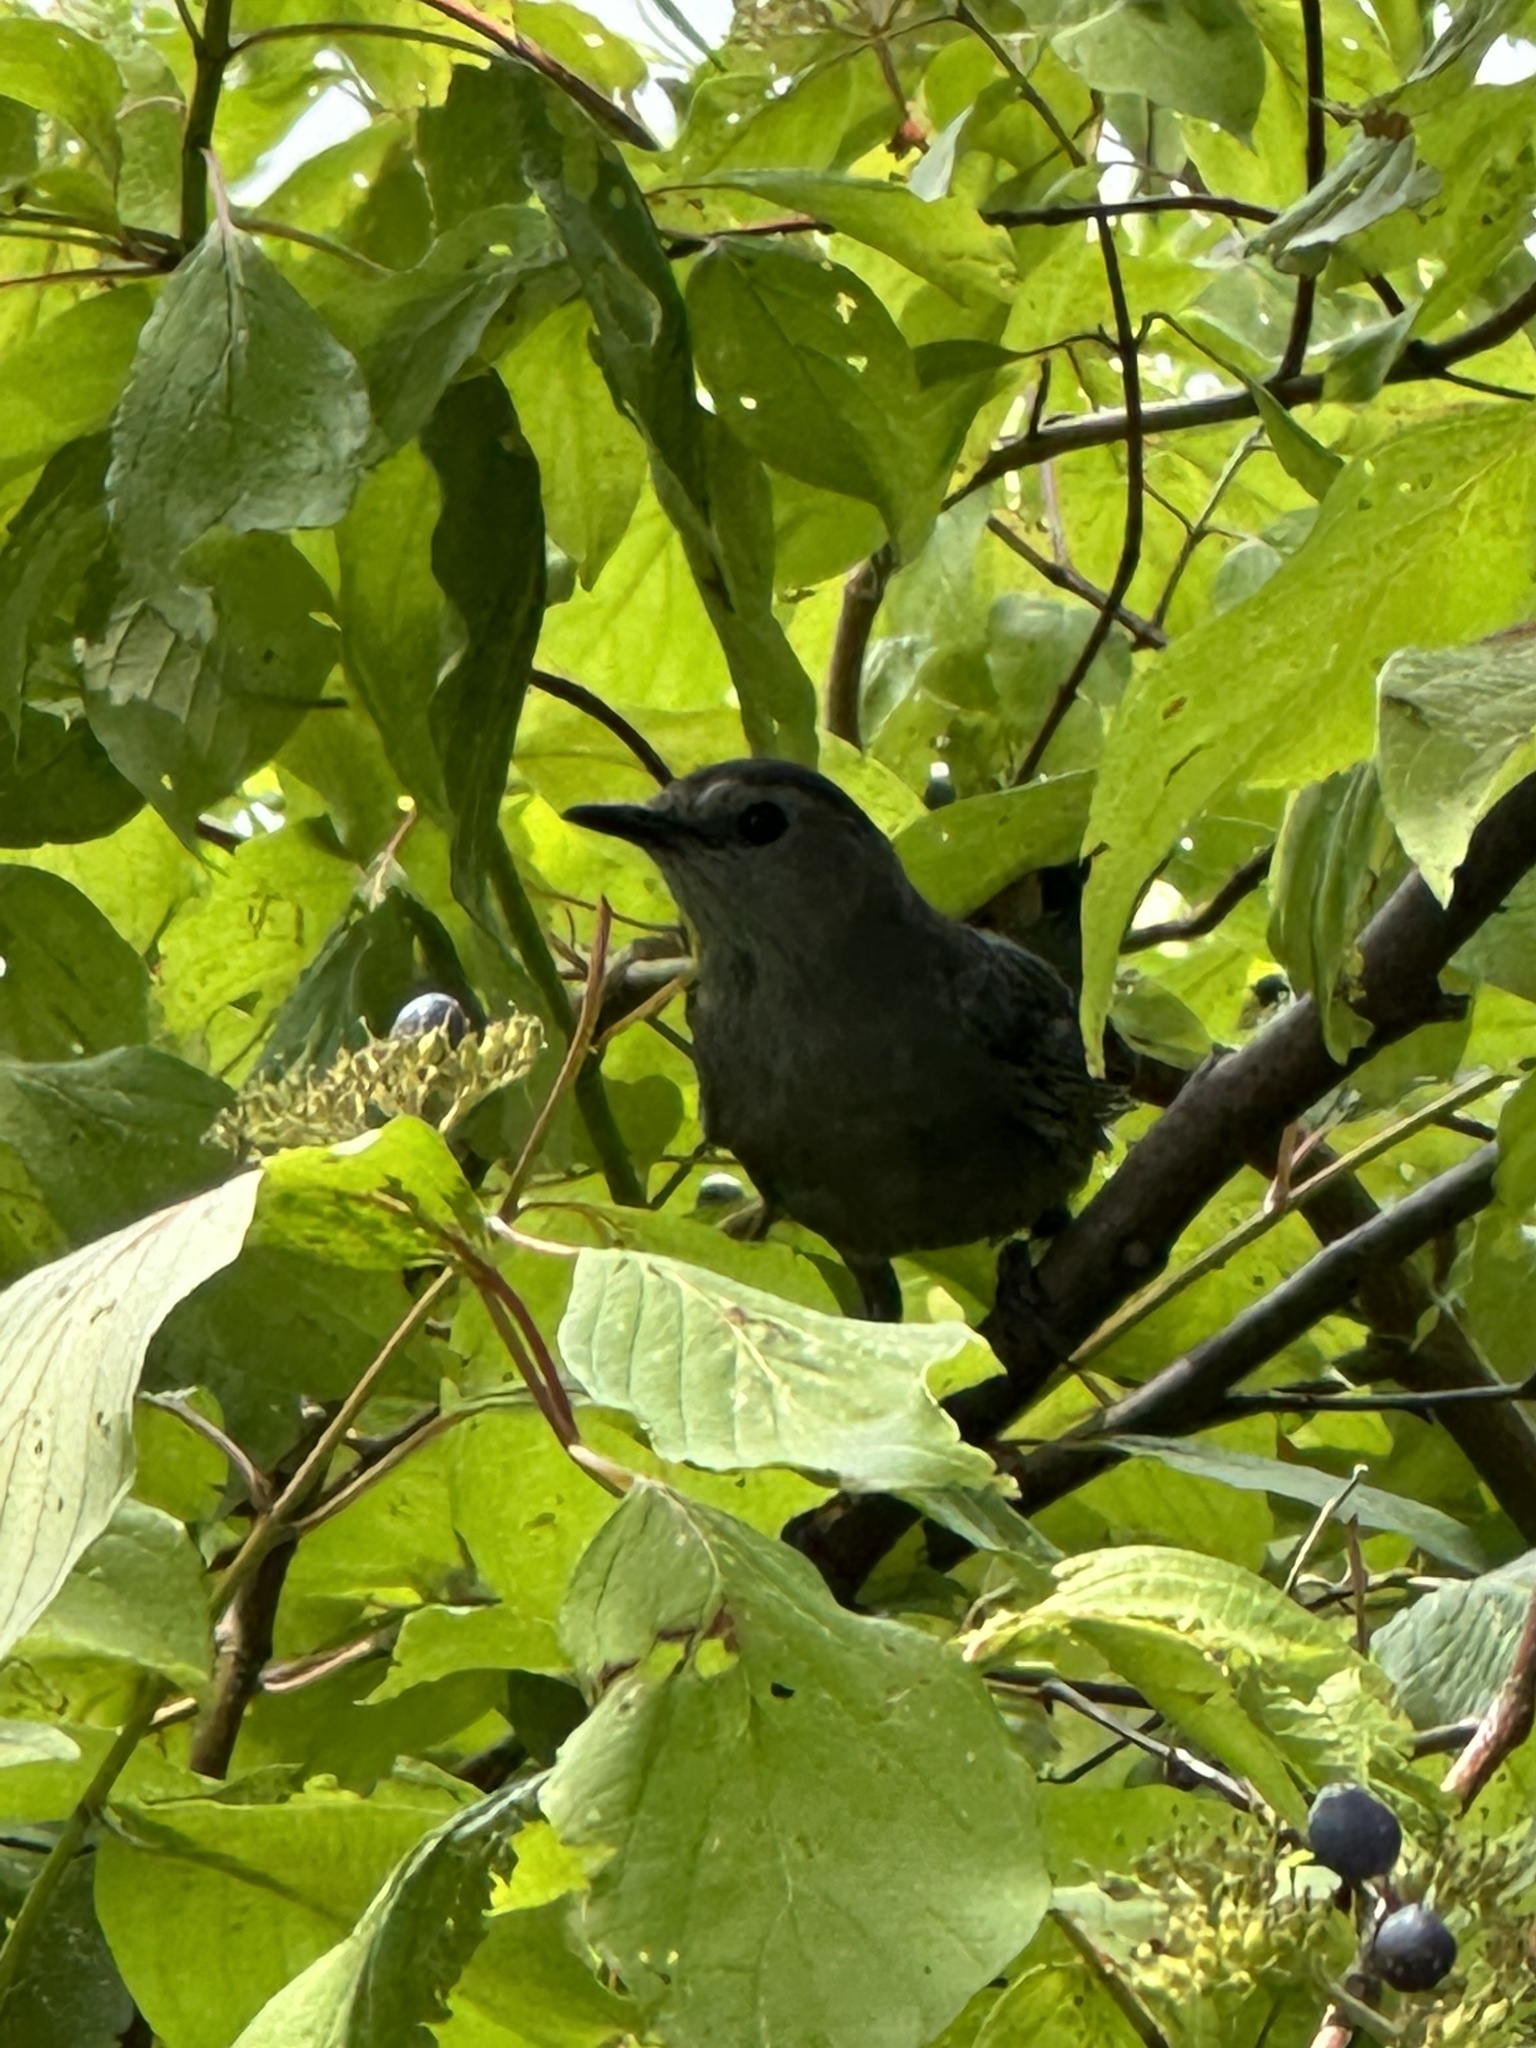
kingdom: Animalia
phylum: Chordata
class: Aves
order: Passeriformes
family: Mimidae
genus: Dumetella
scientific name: Dumetella carolinensis
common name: Gray catbird
